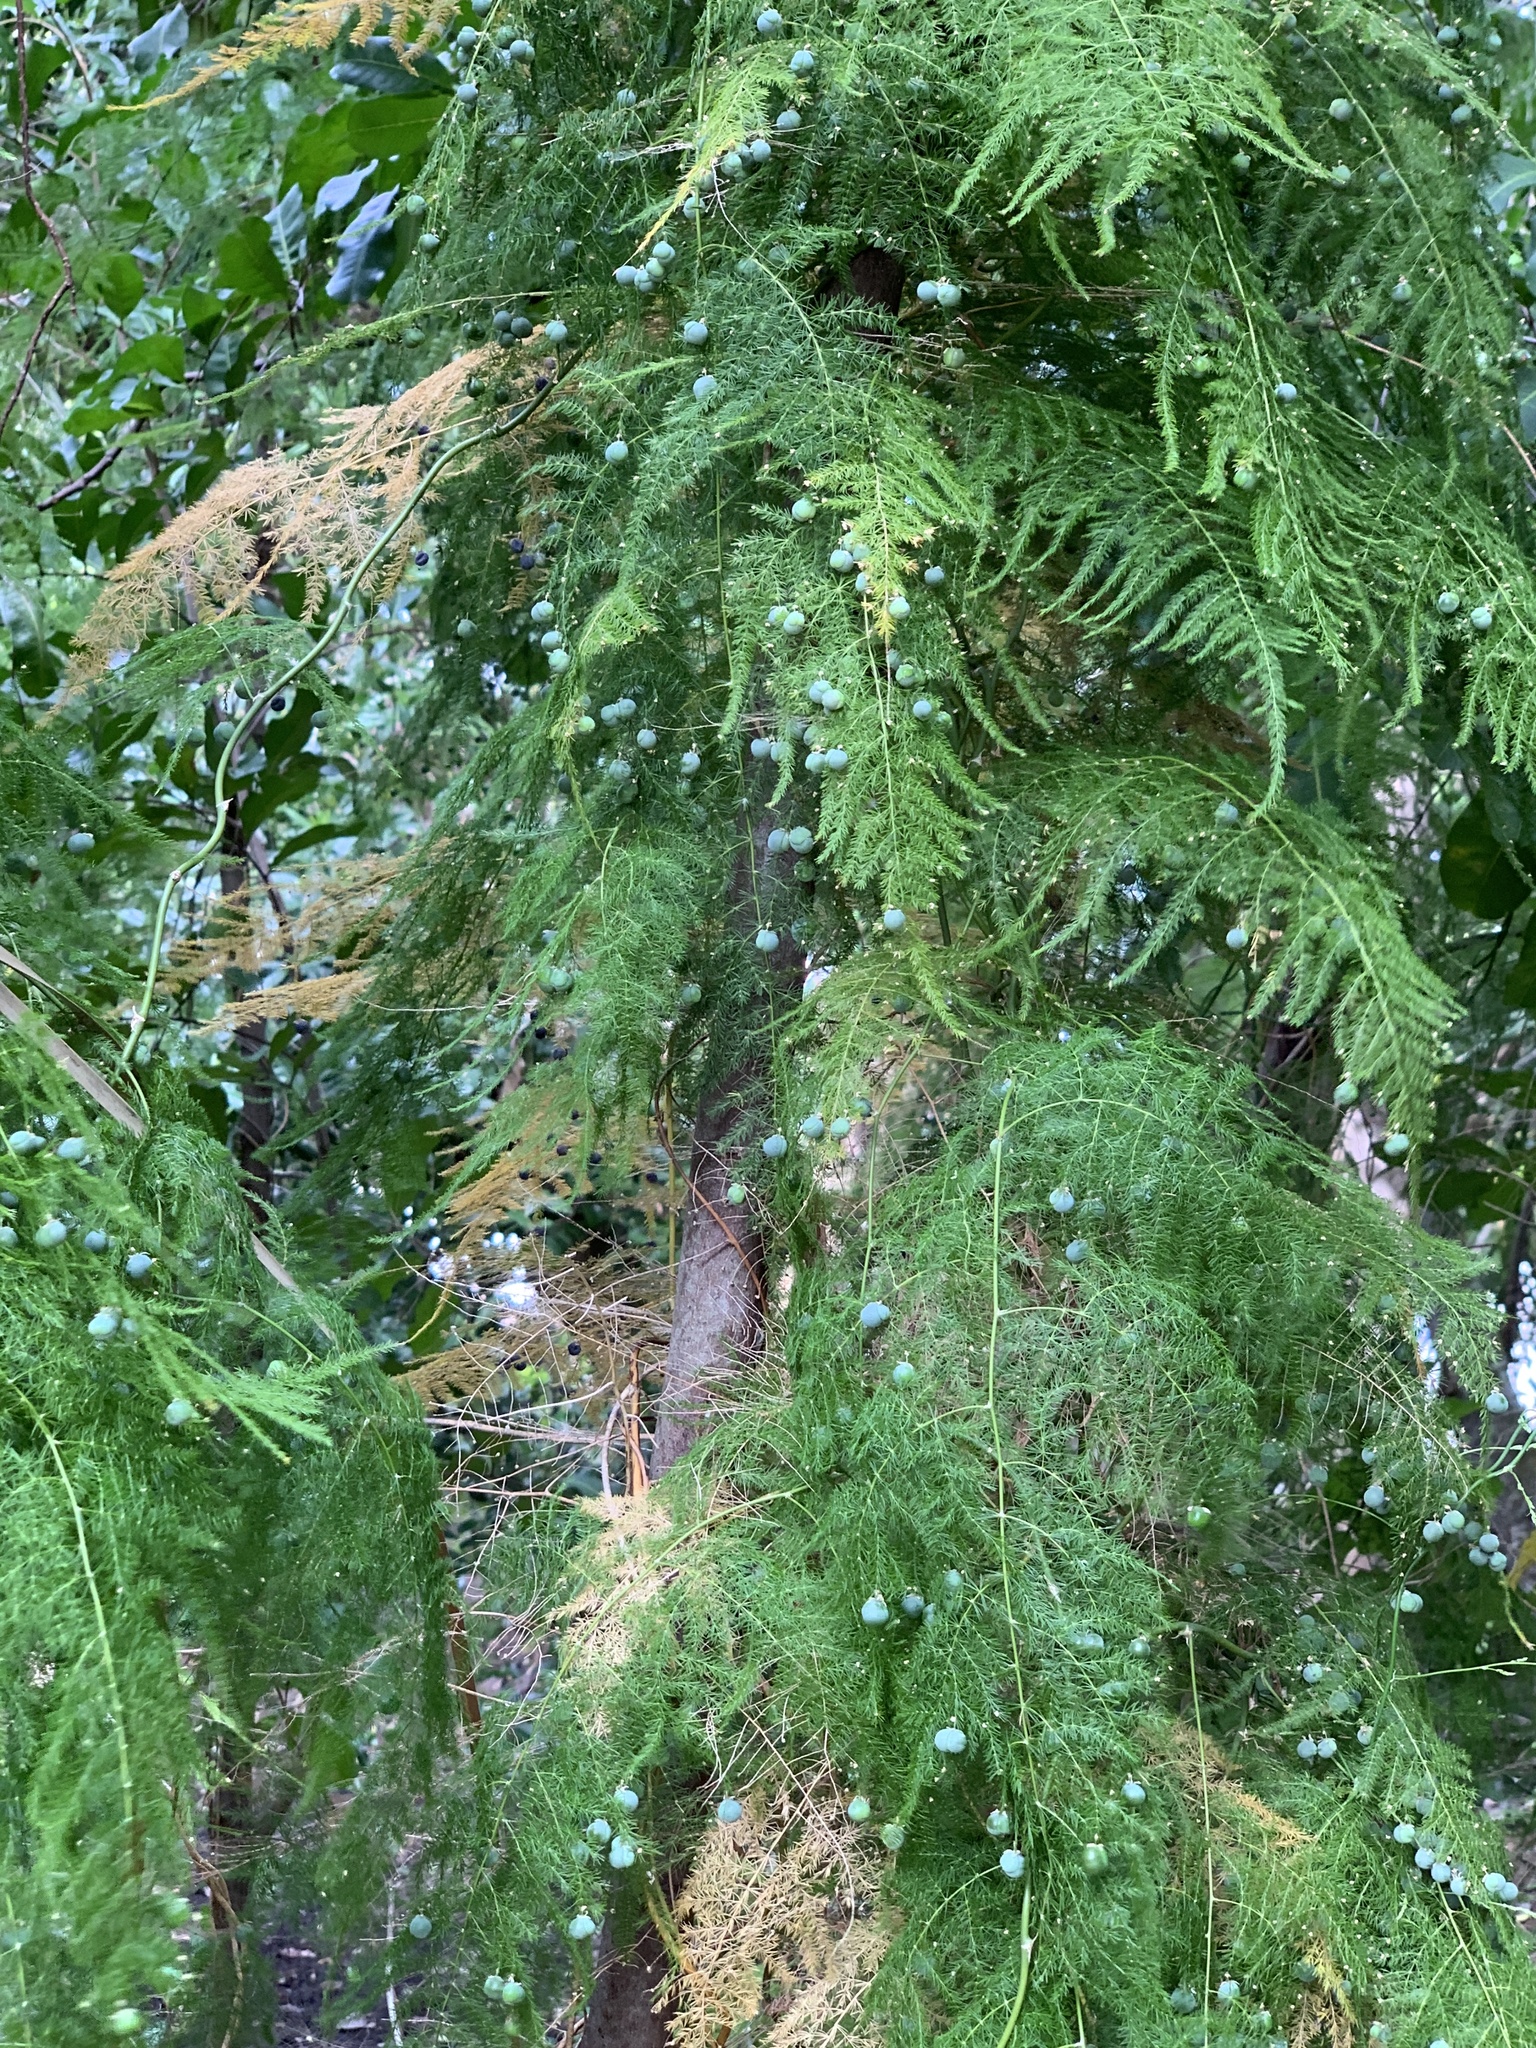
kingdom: Plantae
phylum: Tracheophyta
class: Liliopsida
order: Asparagales
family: Asparagaceae
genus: Asparagus
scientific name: Asparagus setaceus
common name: Common asparagus fern
